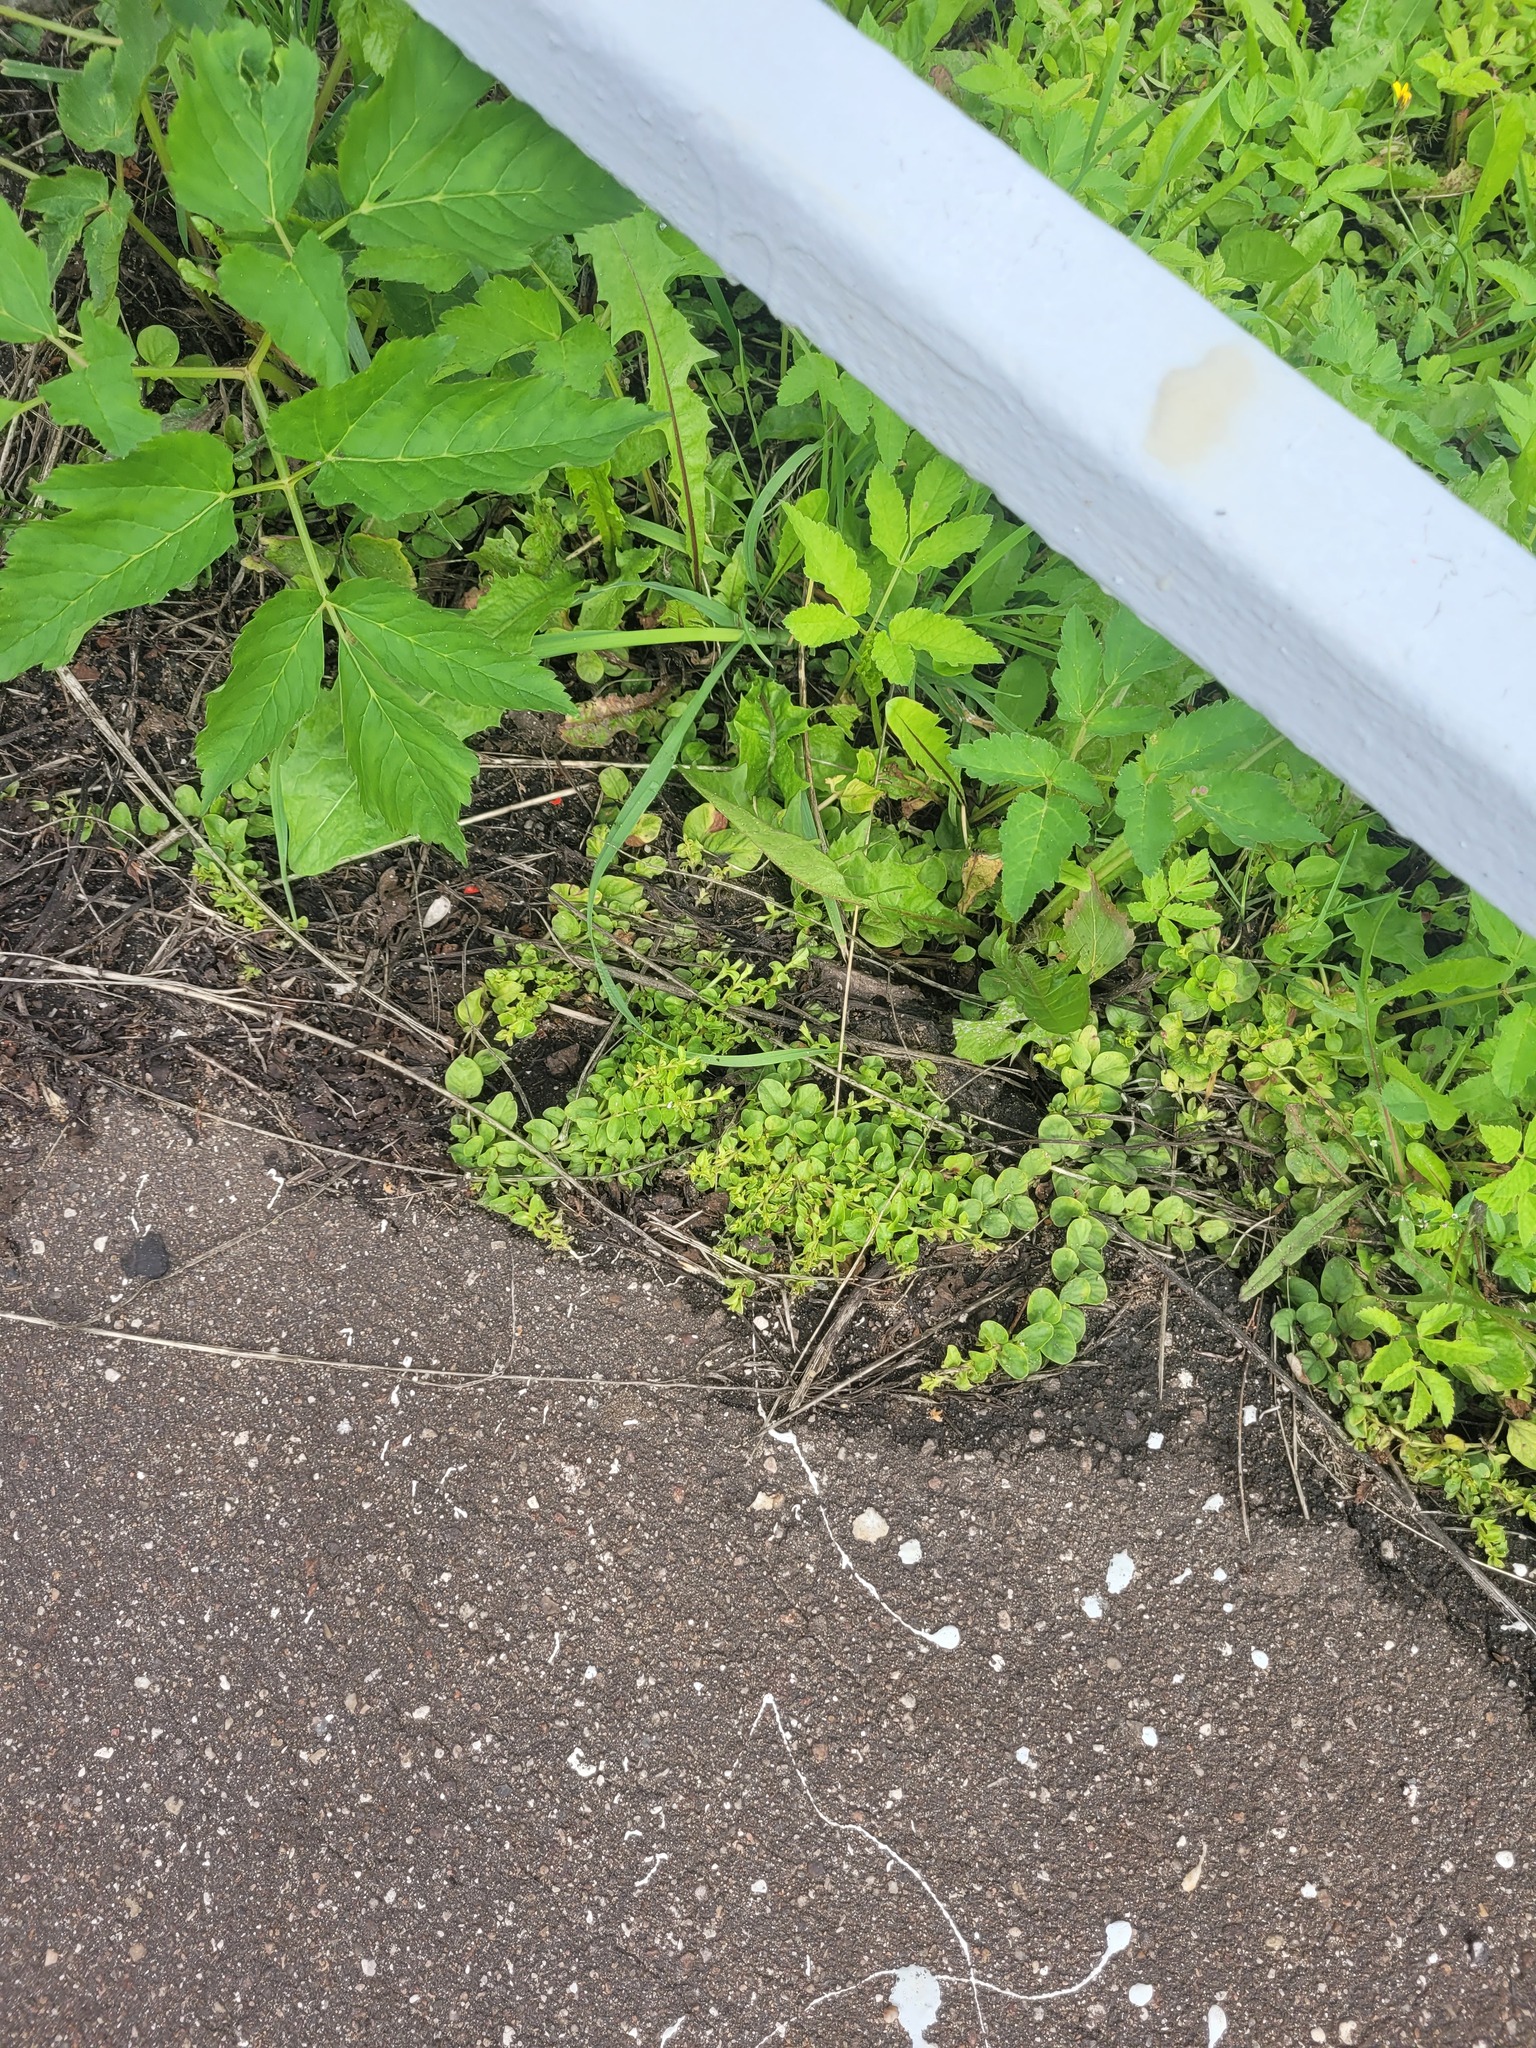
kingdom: Plantae
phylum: Tracheophyta
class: Magnoliopsida
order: Ericales
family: Primulaceae
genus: Lysimachia
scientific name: Lysimachia nummularia
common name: Moneywort
